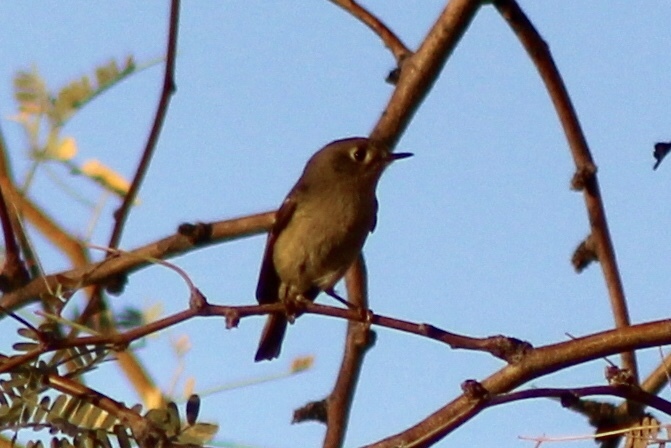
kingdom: Animalia
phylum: Chordata
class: Aves
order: Passeriformes
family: Regulidae
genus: Regulus
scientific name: Regulus calendula
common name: Ruby-crowned kinglet
